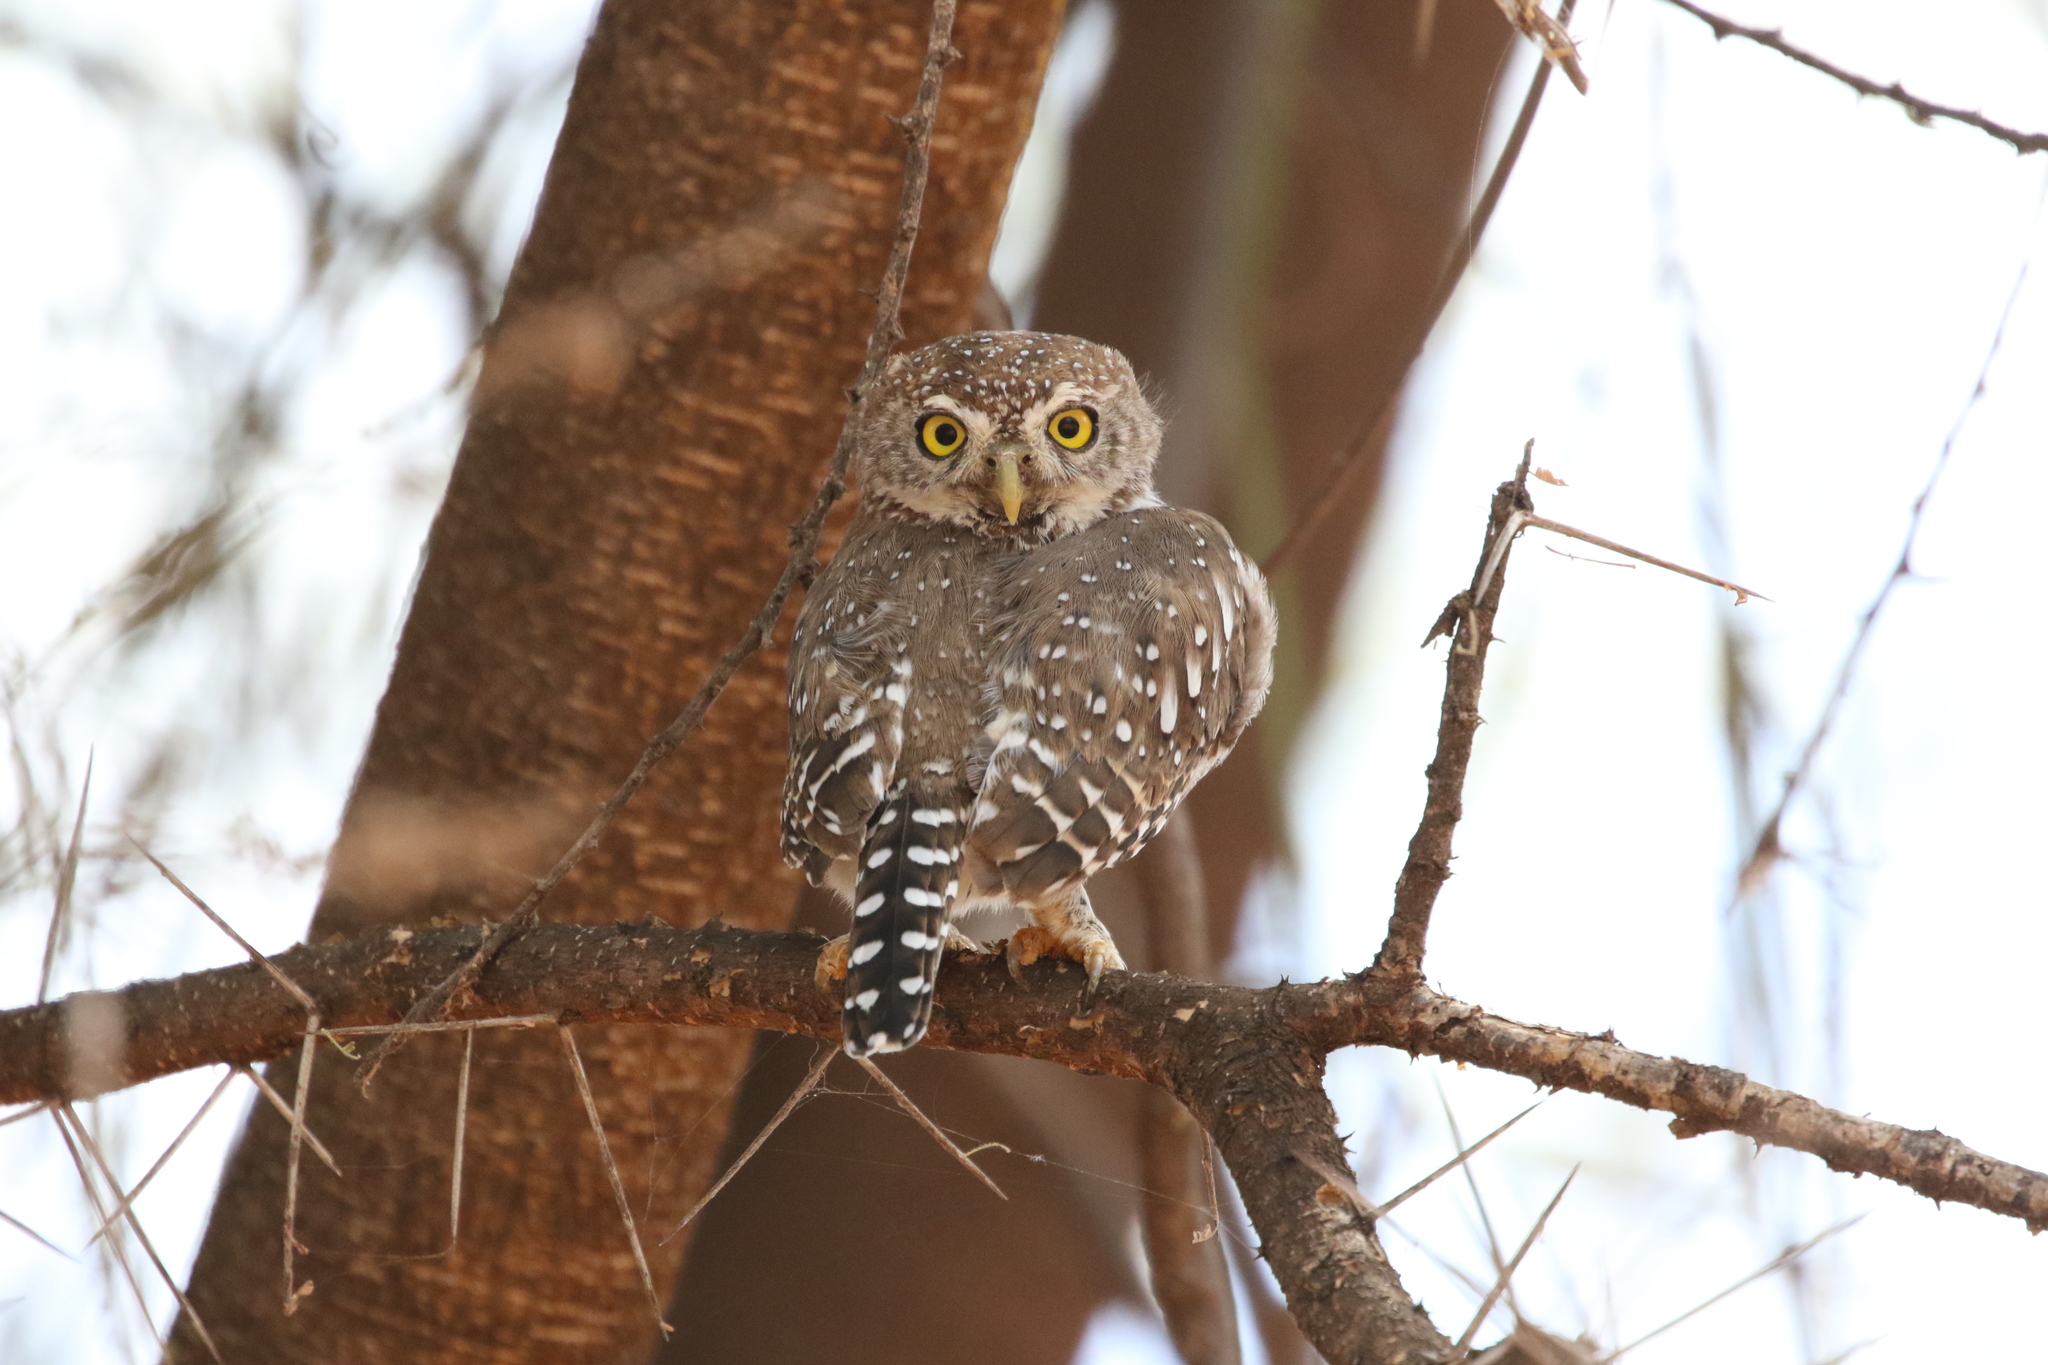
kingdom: Animalia
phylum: Chordata
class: Aves
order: Strigiformes
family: Strigidae
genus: Glaucidium
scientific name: Glaucidium perlatum
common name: Pearl-spotted owlet
